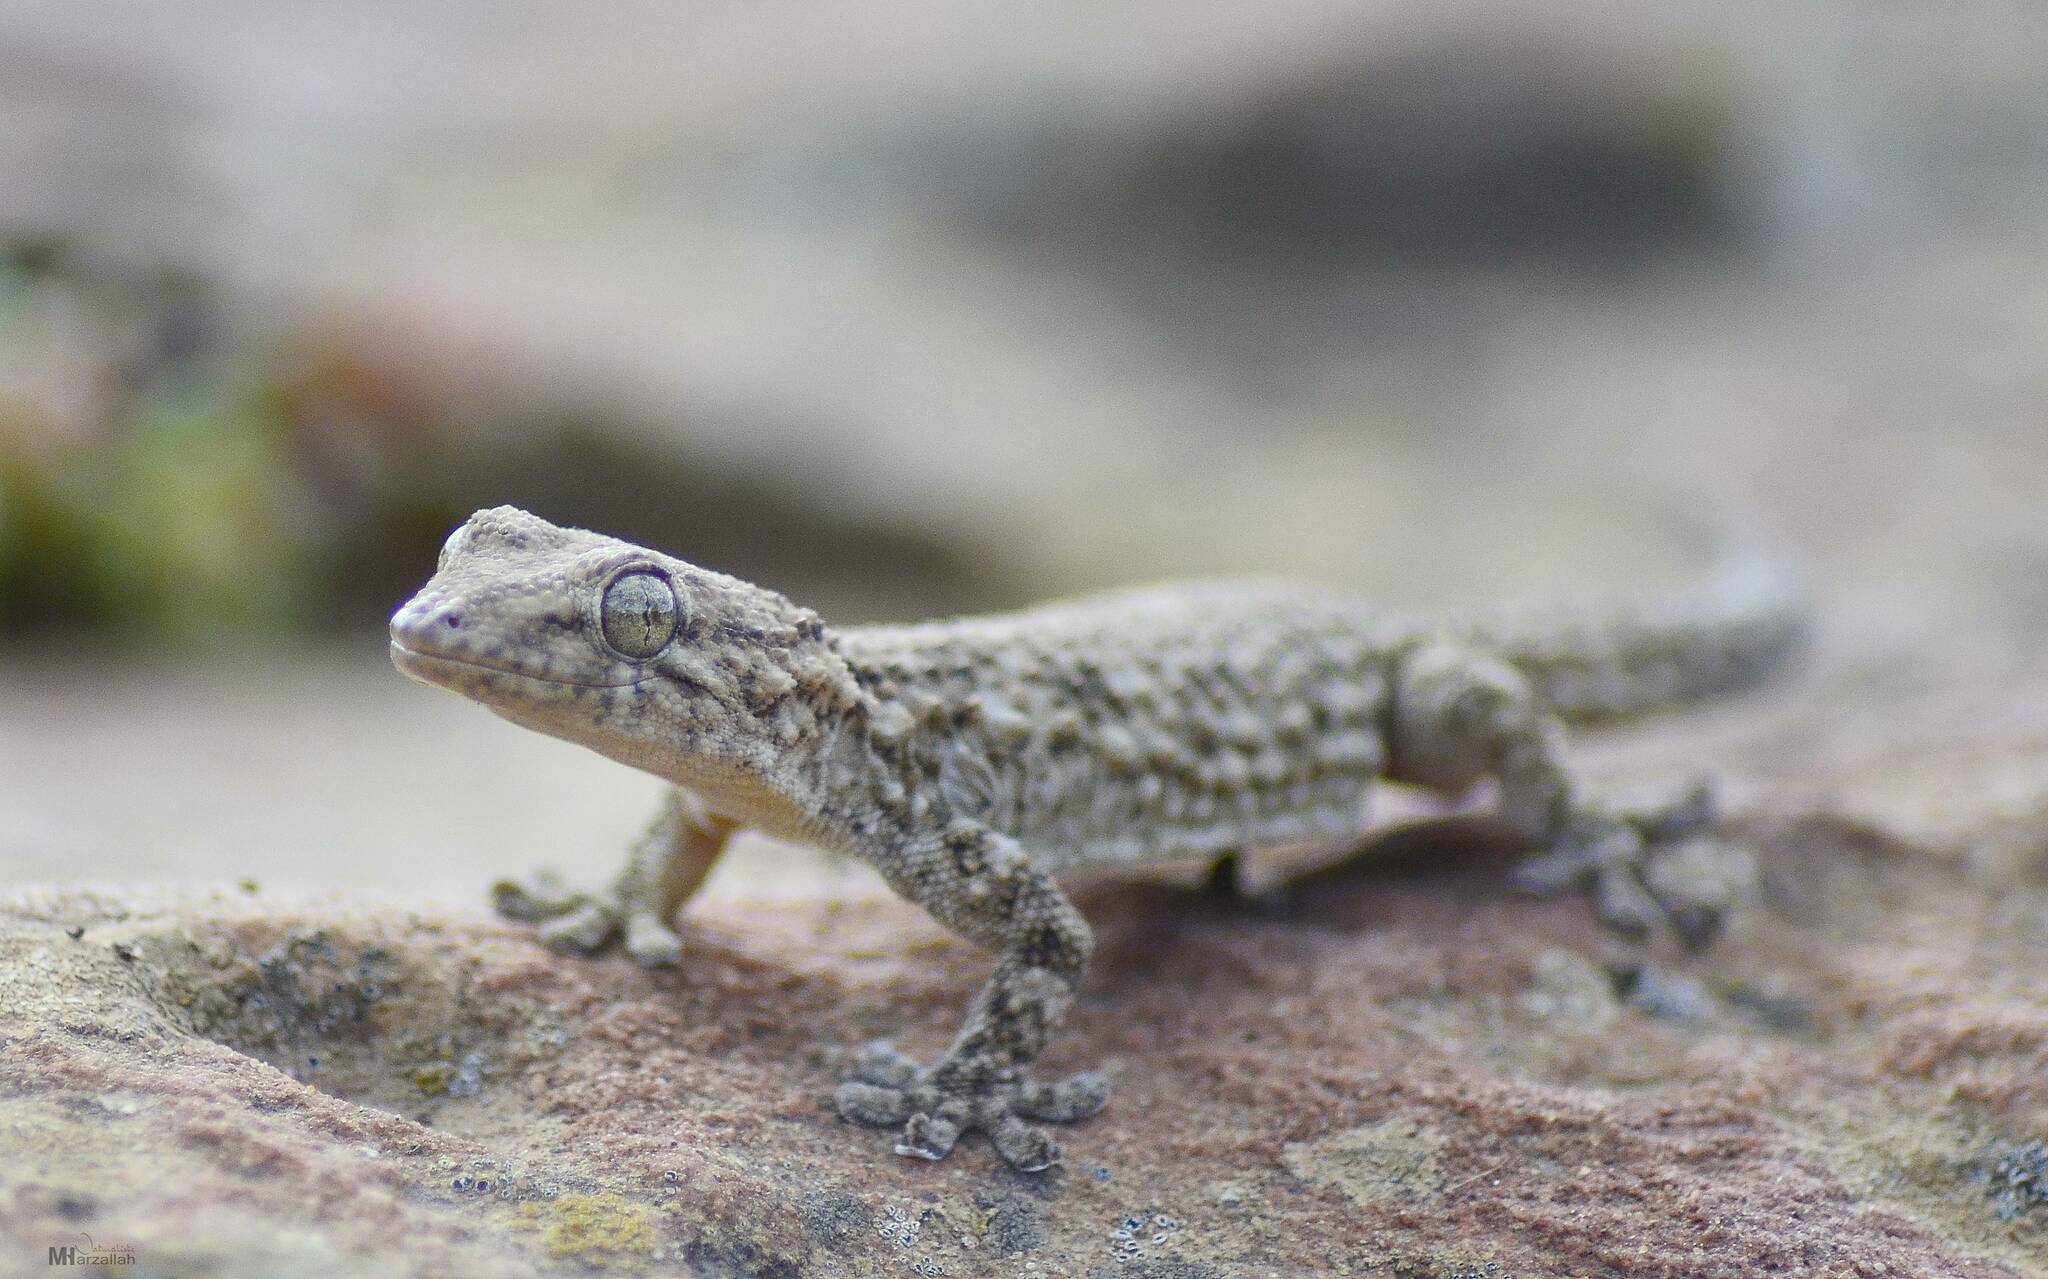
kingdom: Animalia
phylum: Chordata
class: Squamata
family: Phyllodactylidae
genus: Tarentola
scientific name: Tarentola mauritanica
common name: Moorish gecko
